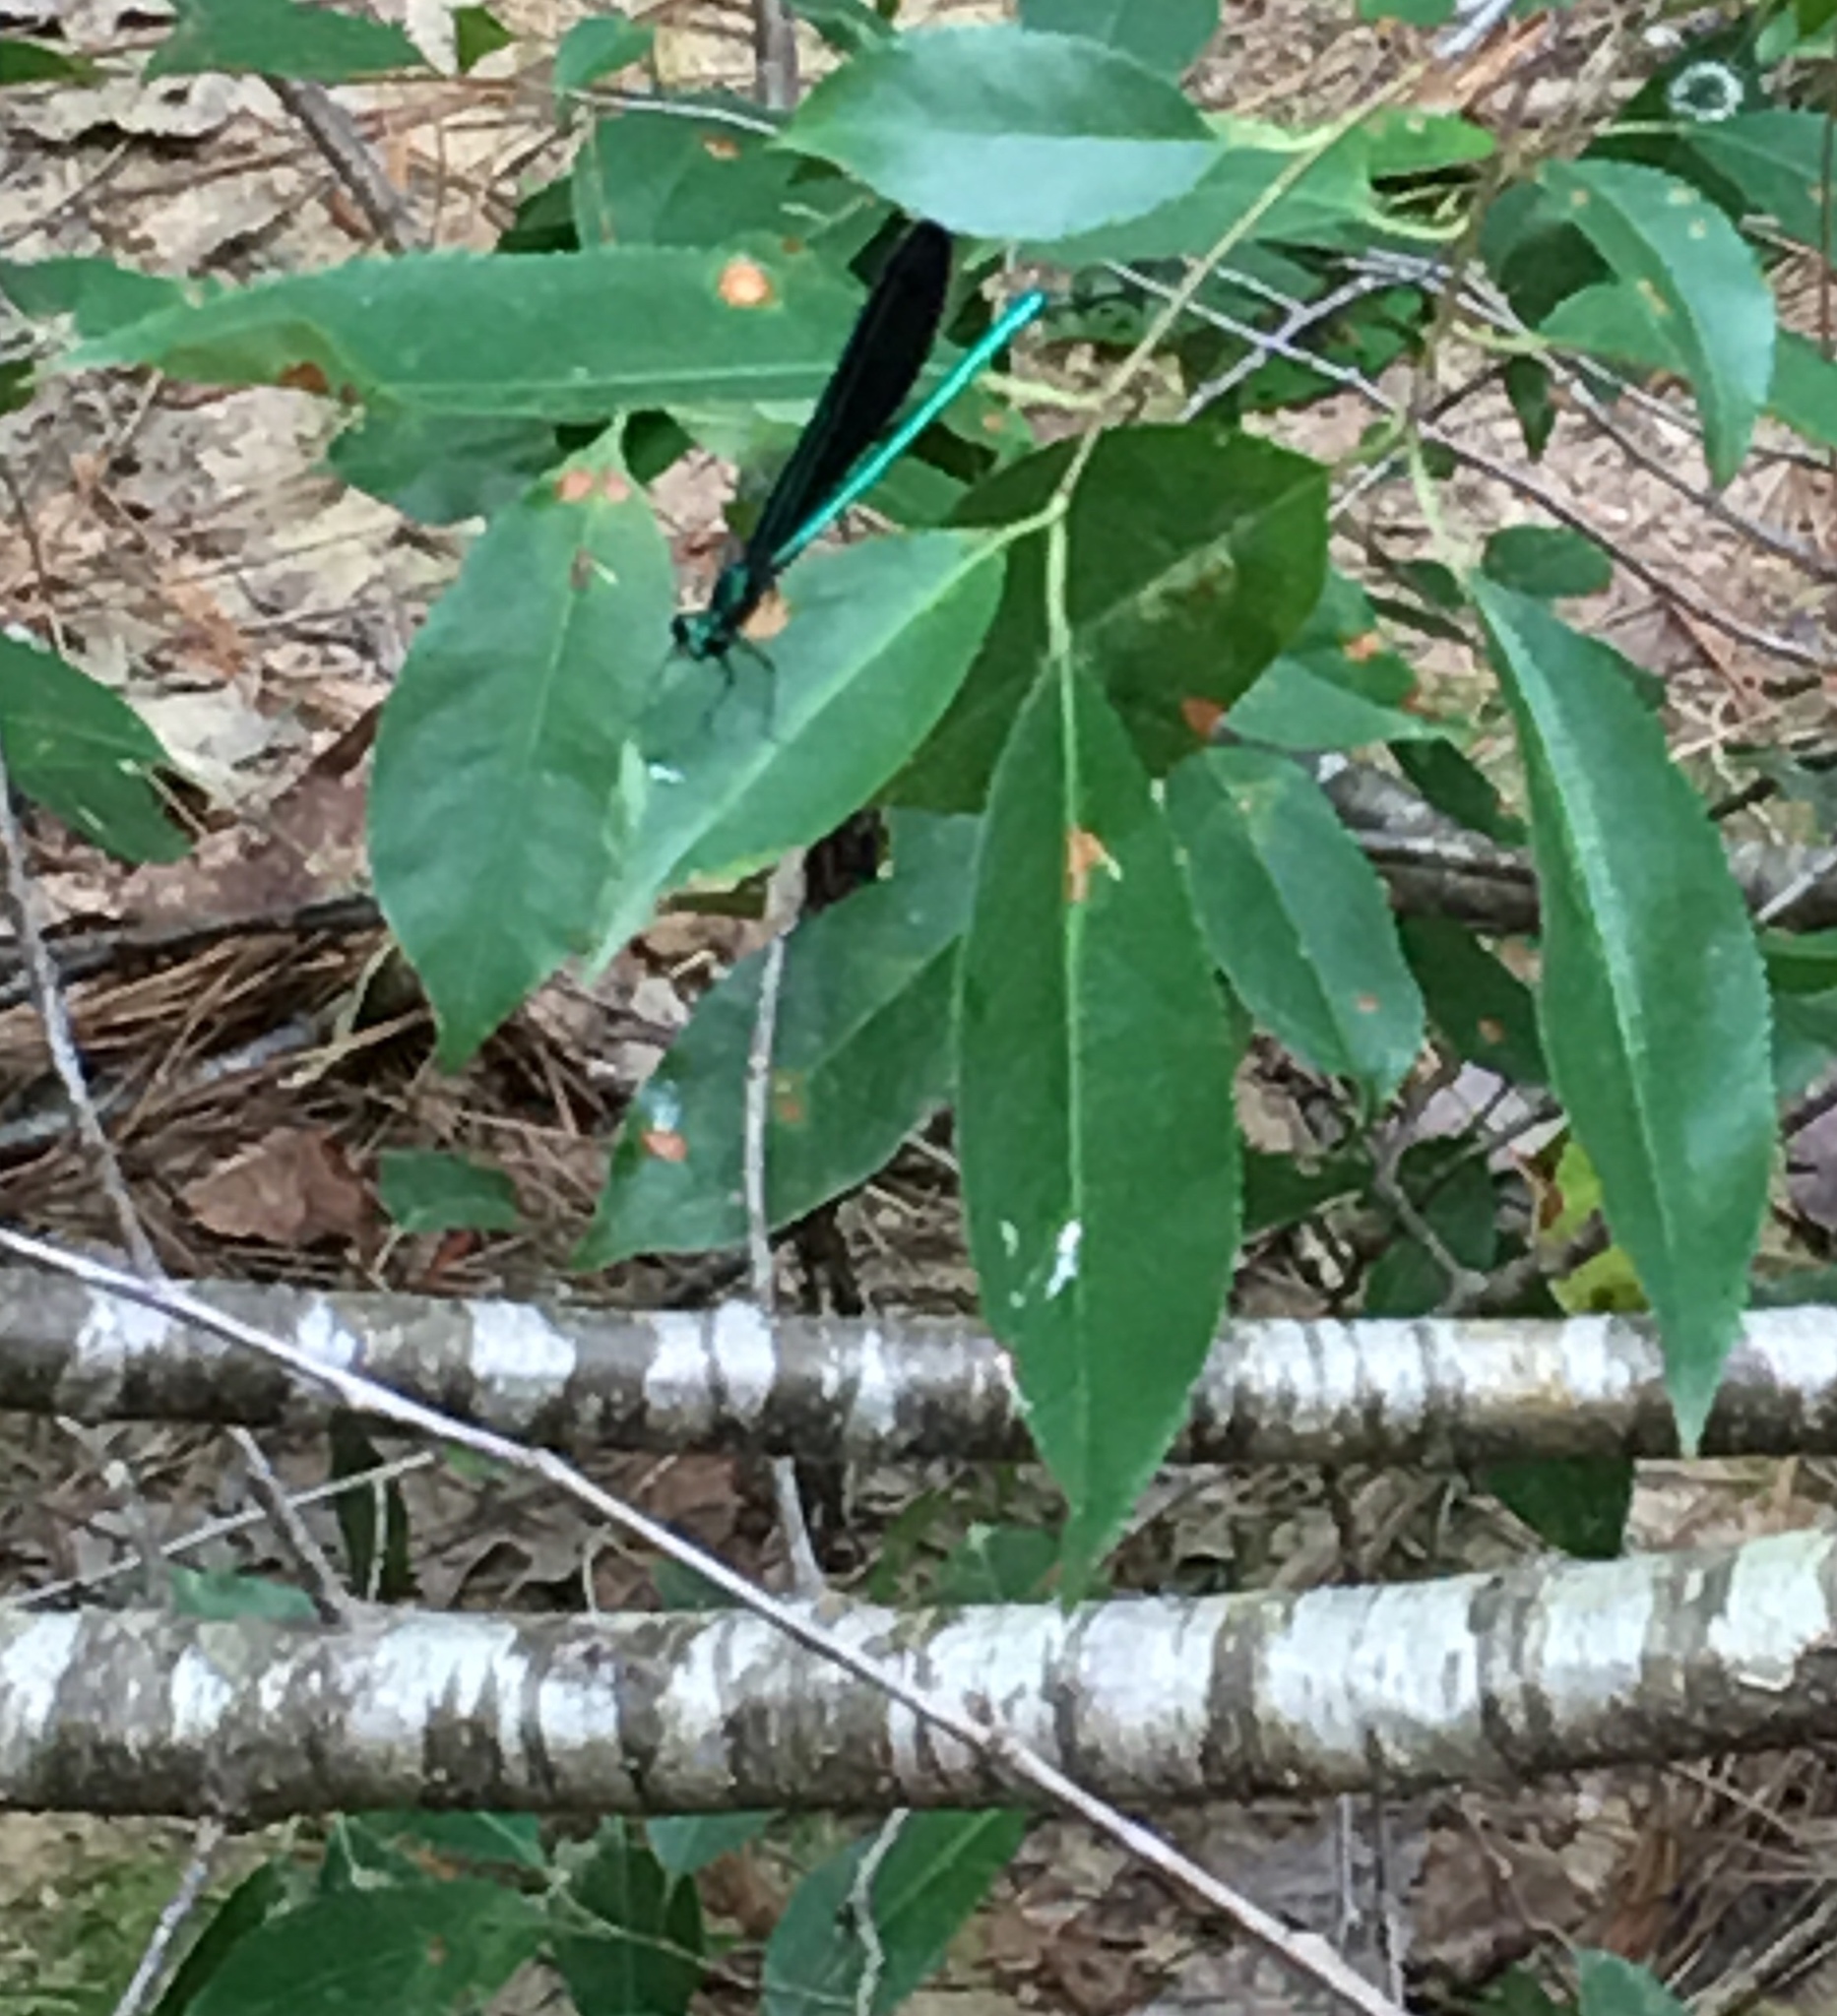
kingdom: Animalia
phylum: Arthropoda
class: Insecta
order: Odonata
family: Calopterygidae
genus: Calopteryx
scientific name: Calopteryx maculata
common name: Ebony jewelwing
